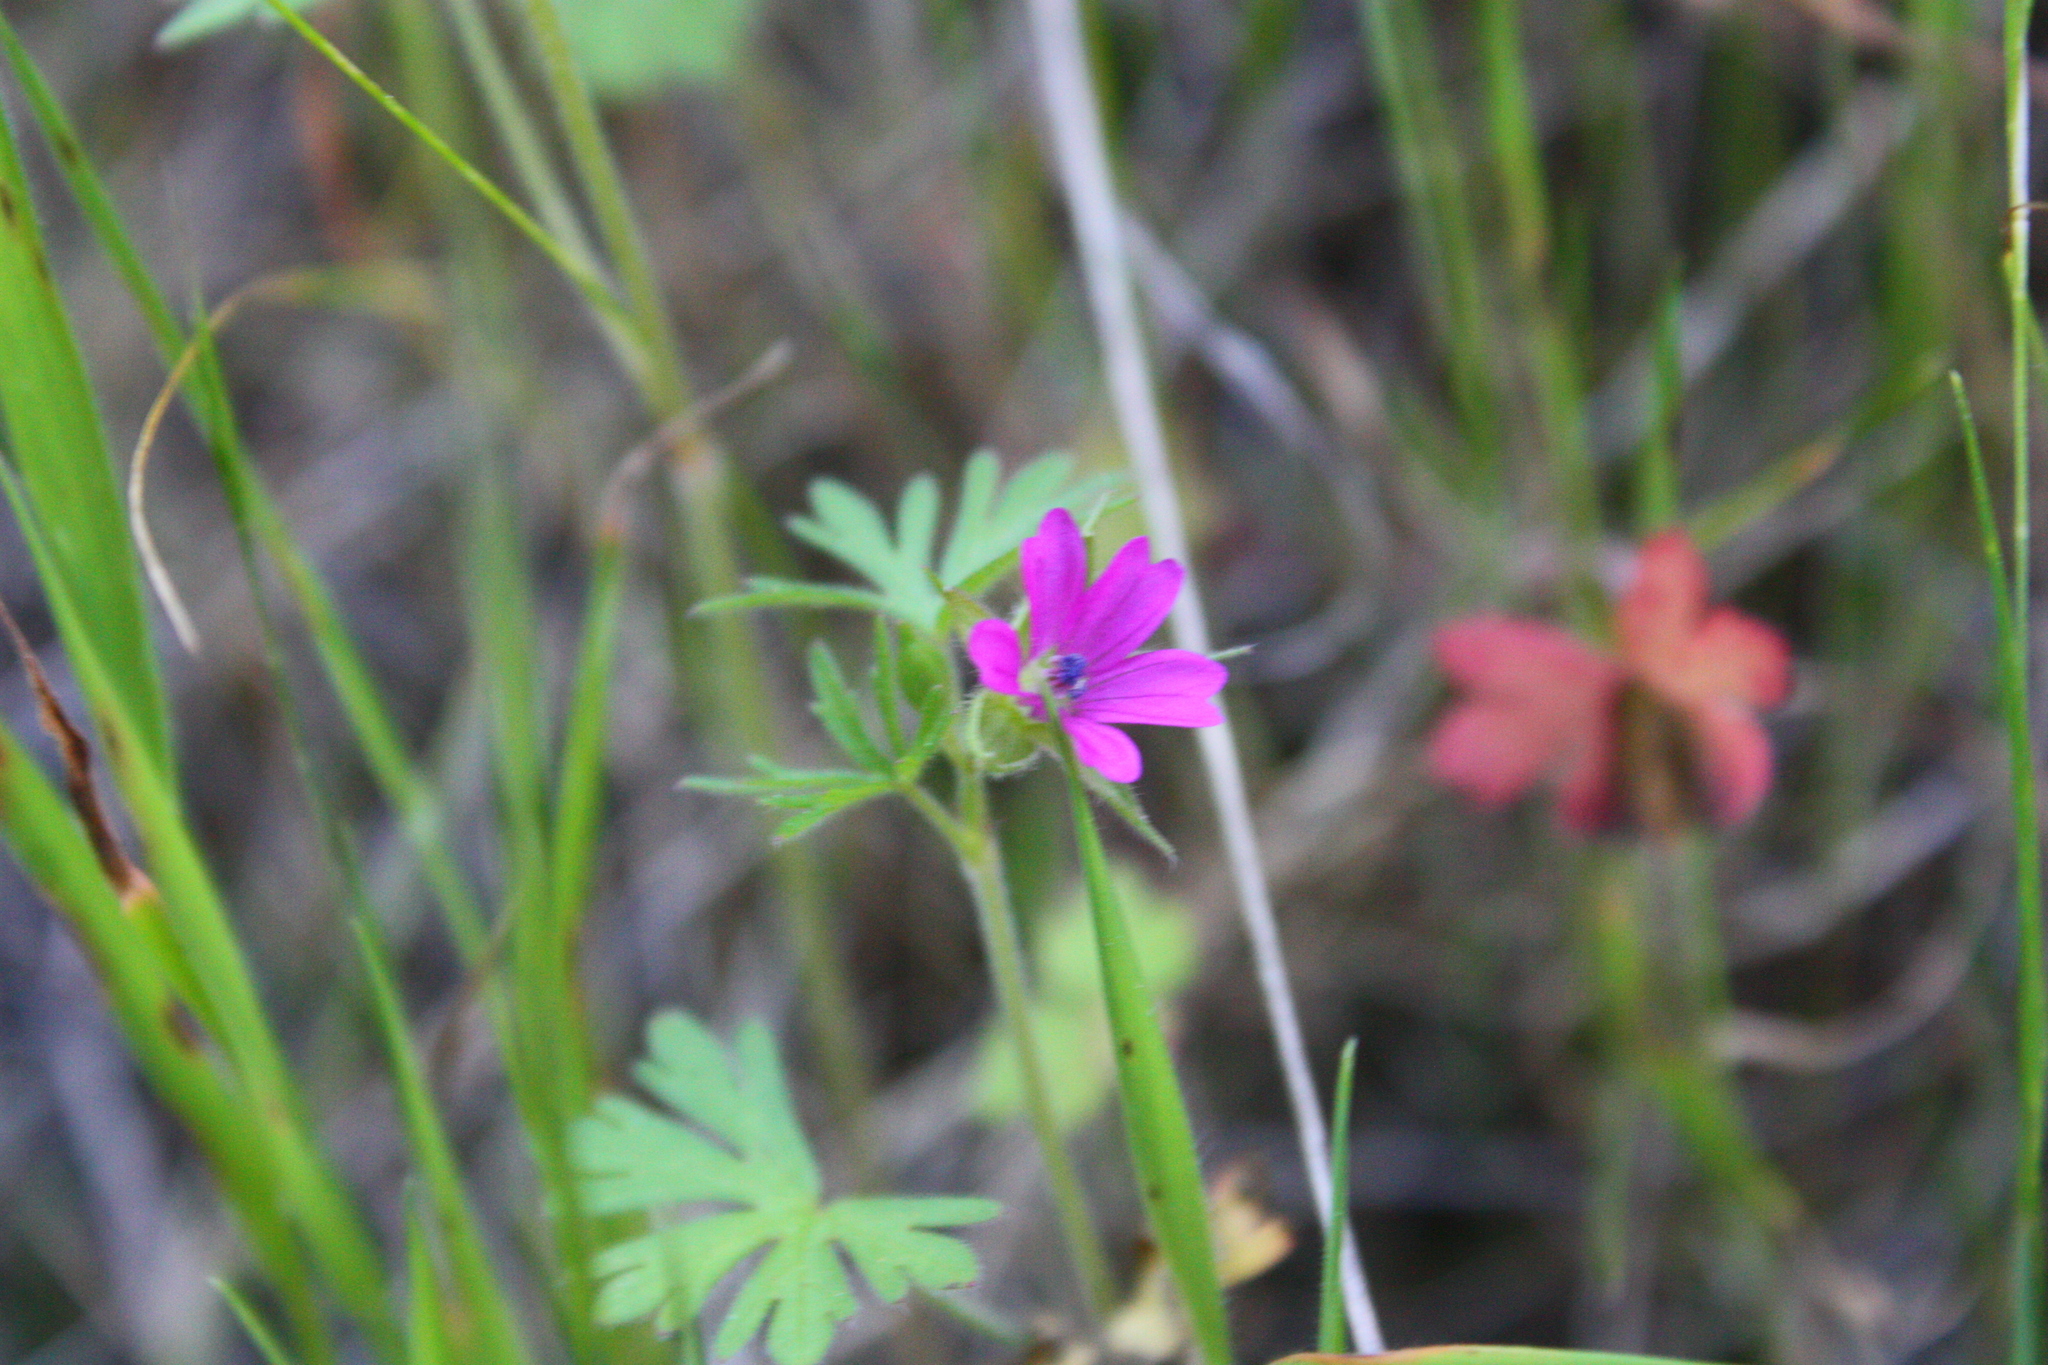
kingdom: Plantae
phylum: Tracheophyta
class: Magnoliopsida
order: Geraniales
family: Geraniaceae
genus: Geranium
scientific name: Geranium dissectum
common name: Cut-leaved crane's-bill
